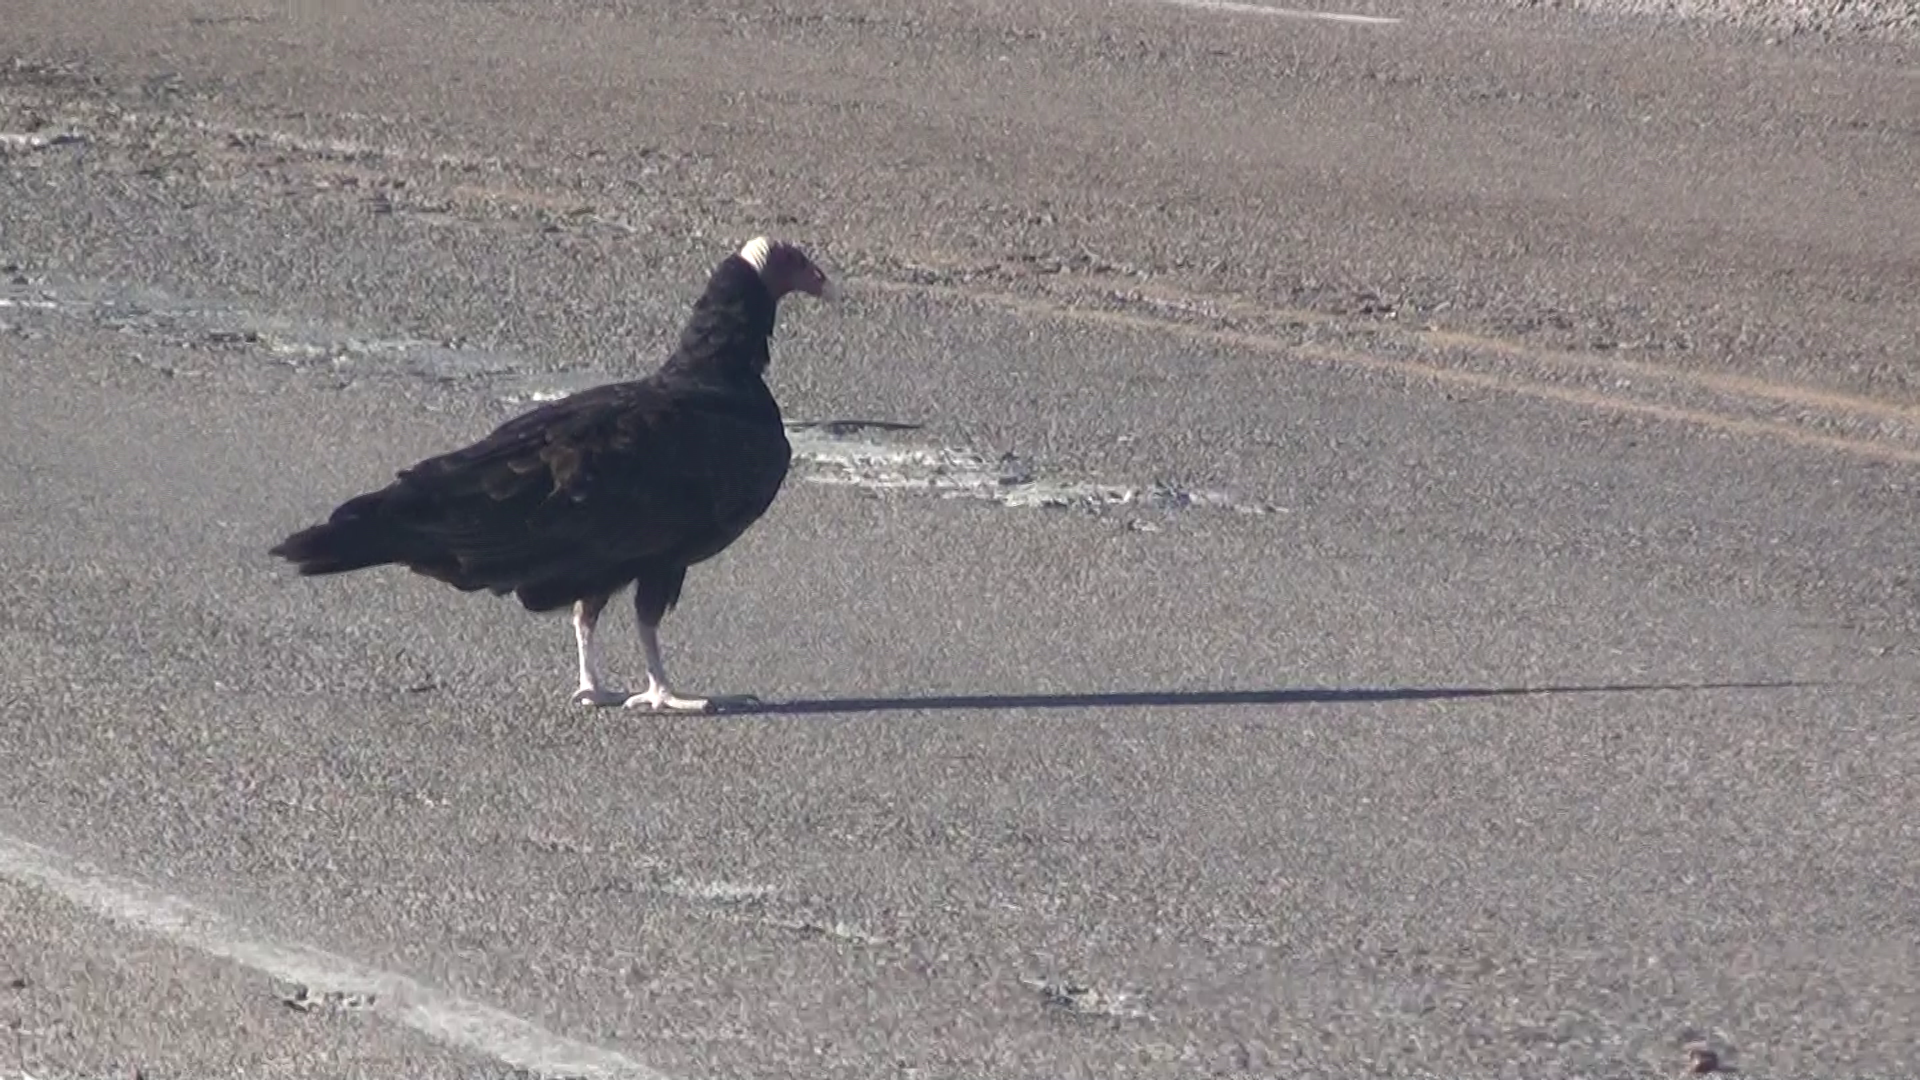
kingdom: Animalia
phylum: Chordata
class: Aves
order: Accipitriformes
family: Cathartidae
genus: Cathartes
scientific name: Cathartes aura
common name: Turkey vulture
